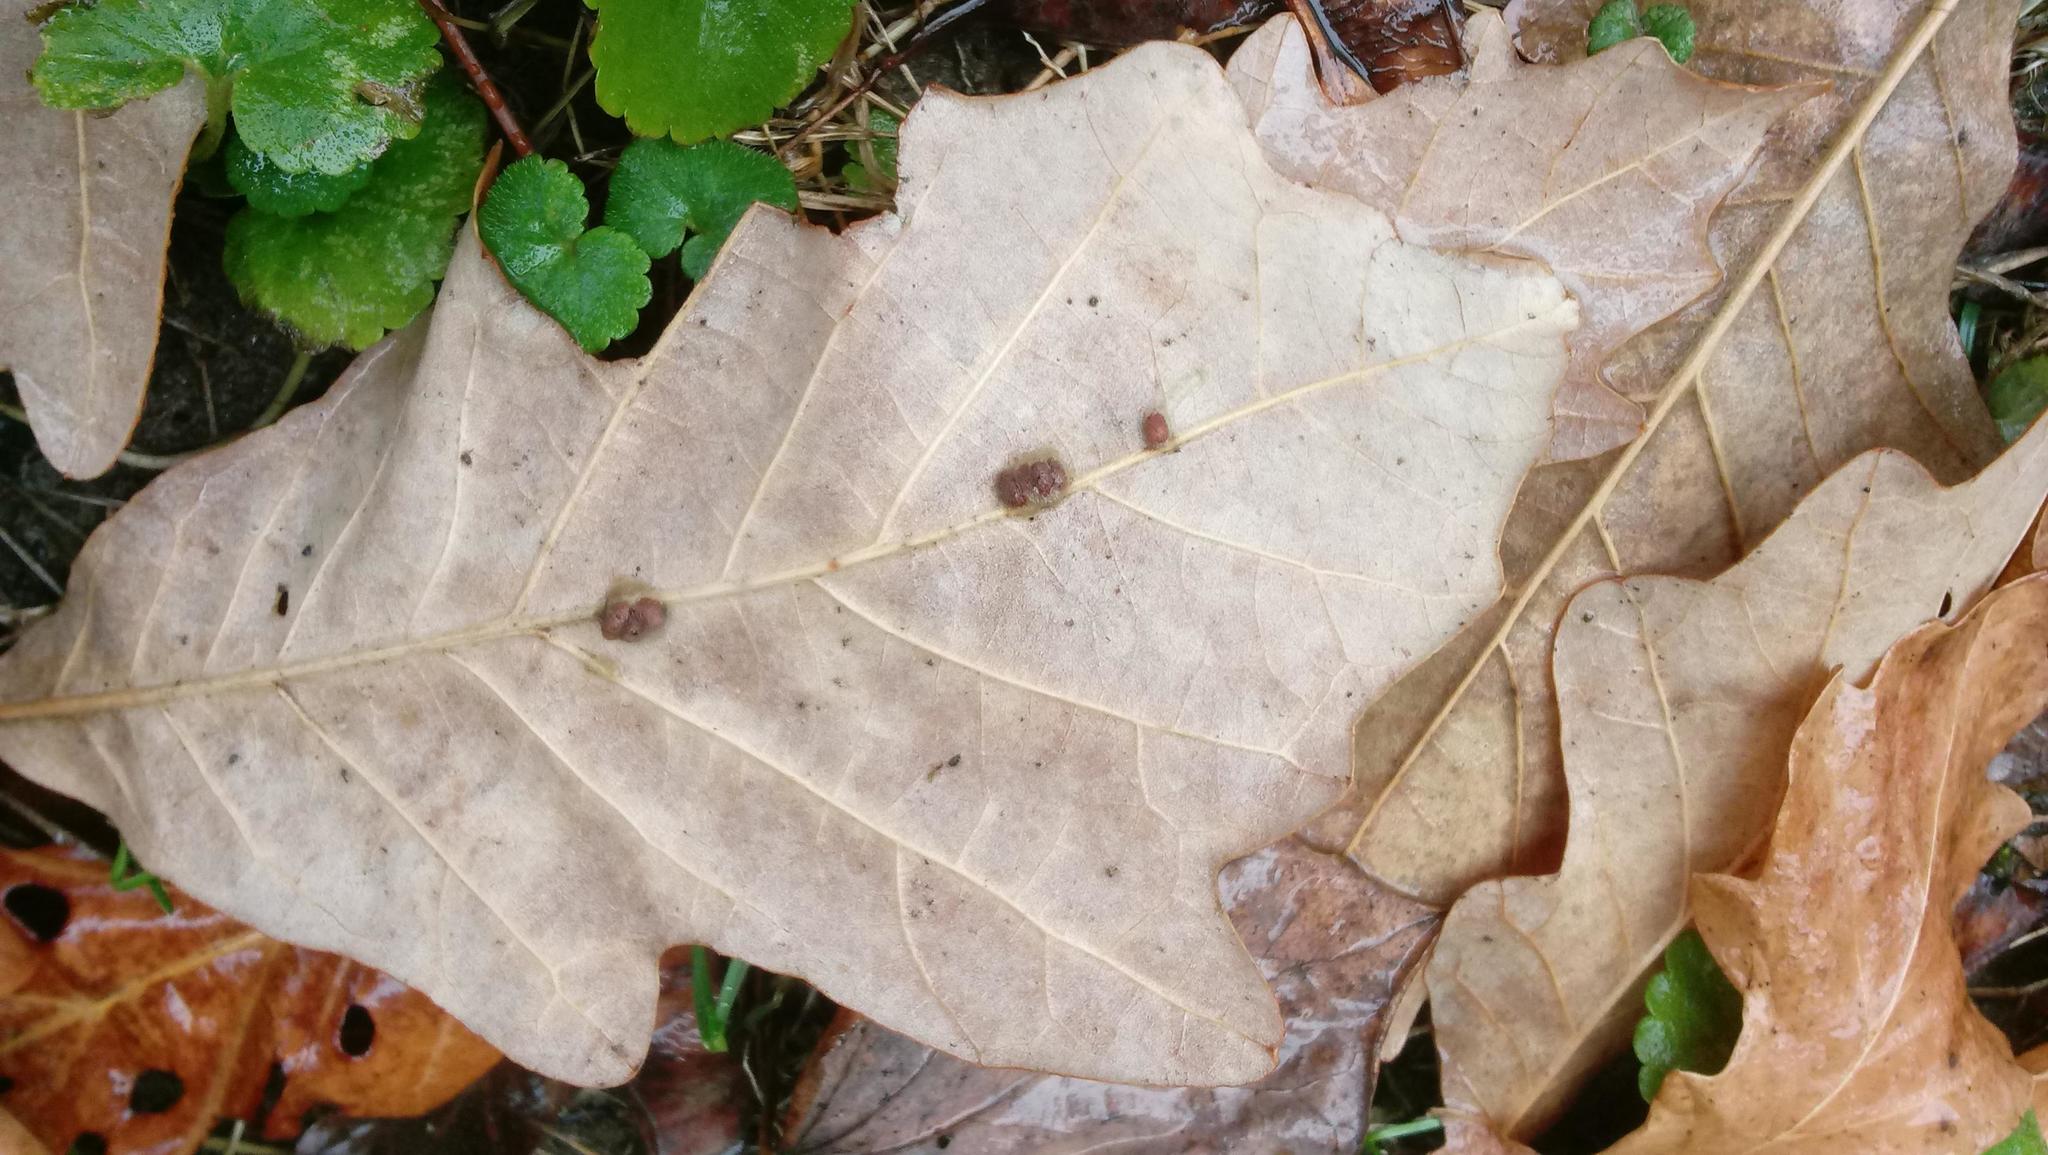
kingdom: Animalia
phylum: Arthropoda
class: Insecta
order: Hymenoptera
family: Cynipidae
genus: Andricus
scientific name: Andricus Druon ignotum
